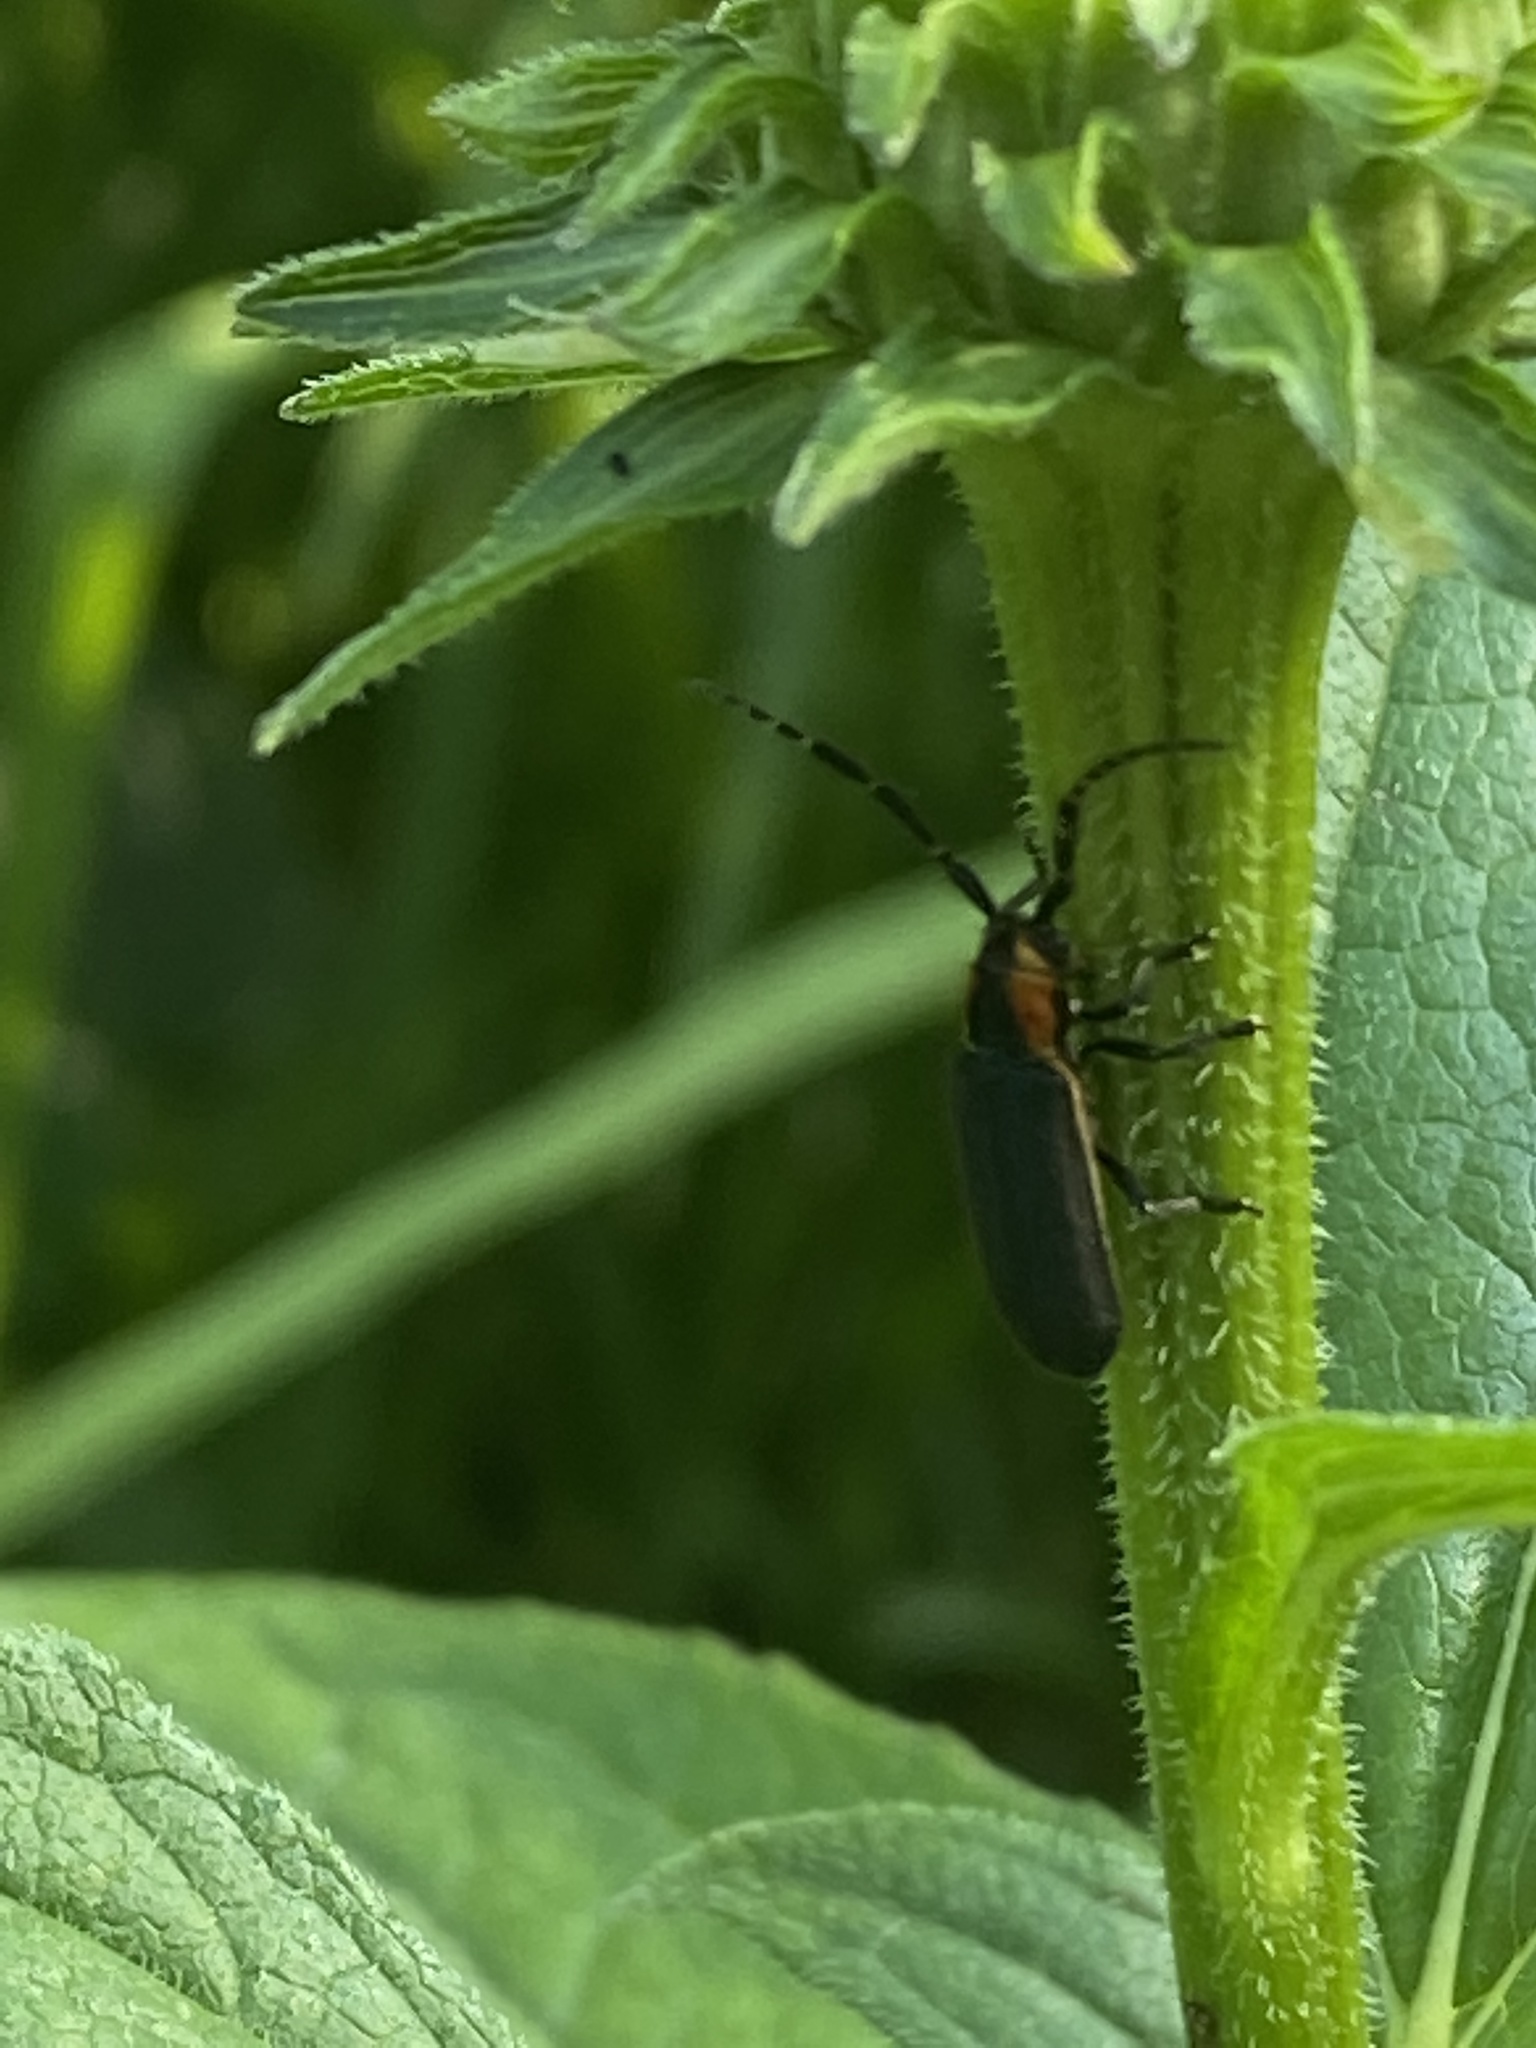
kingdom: Animalia
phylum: Arthropoda
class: Insecta
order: Coleoptera
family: Cerambycidae
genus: Hemierana
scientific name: Hemierana marginata
